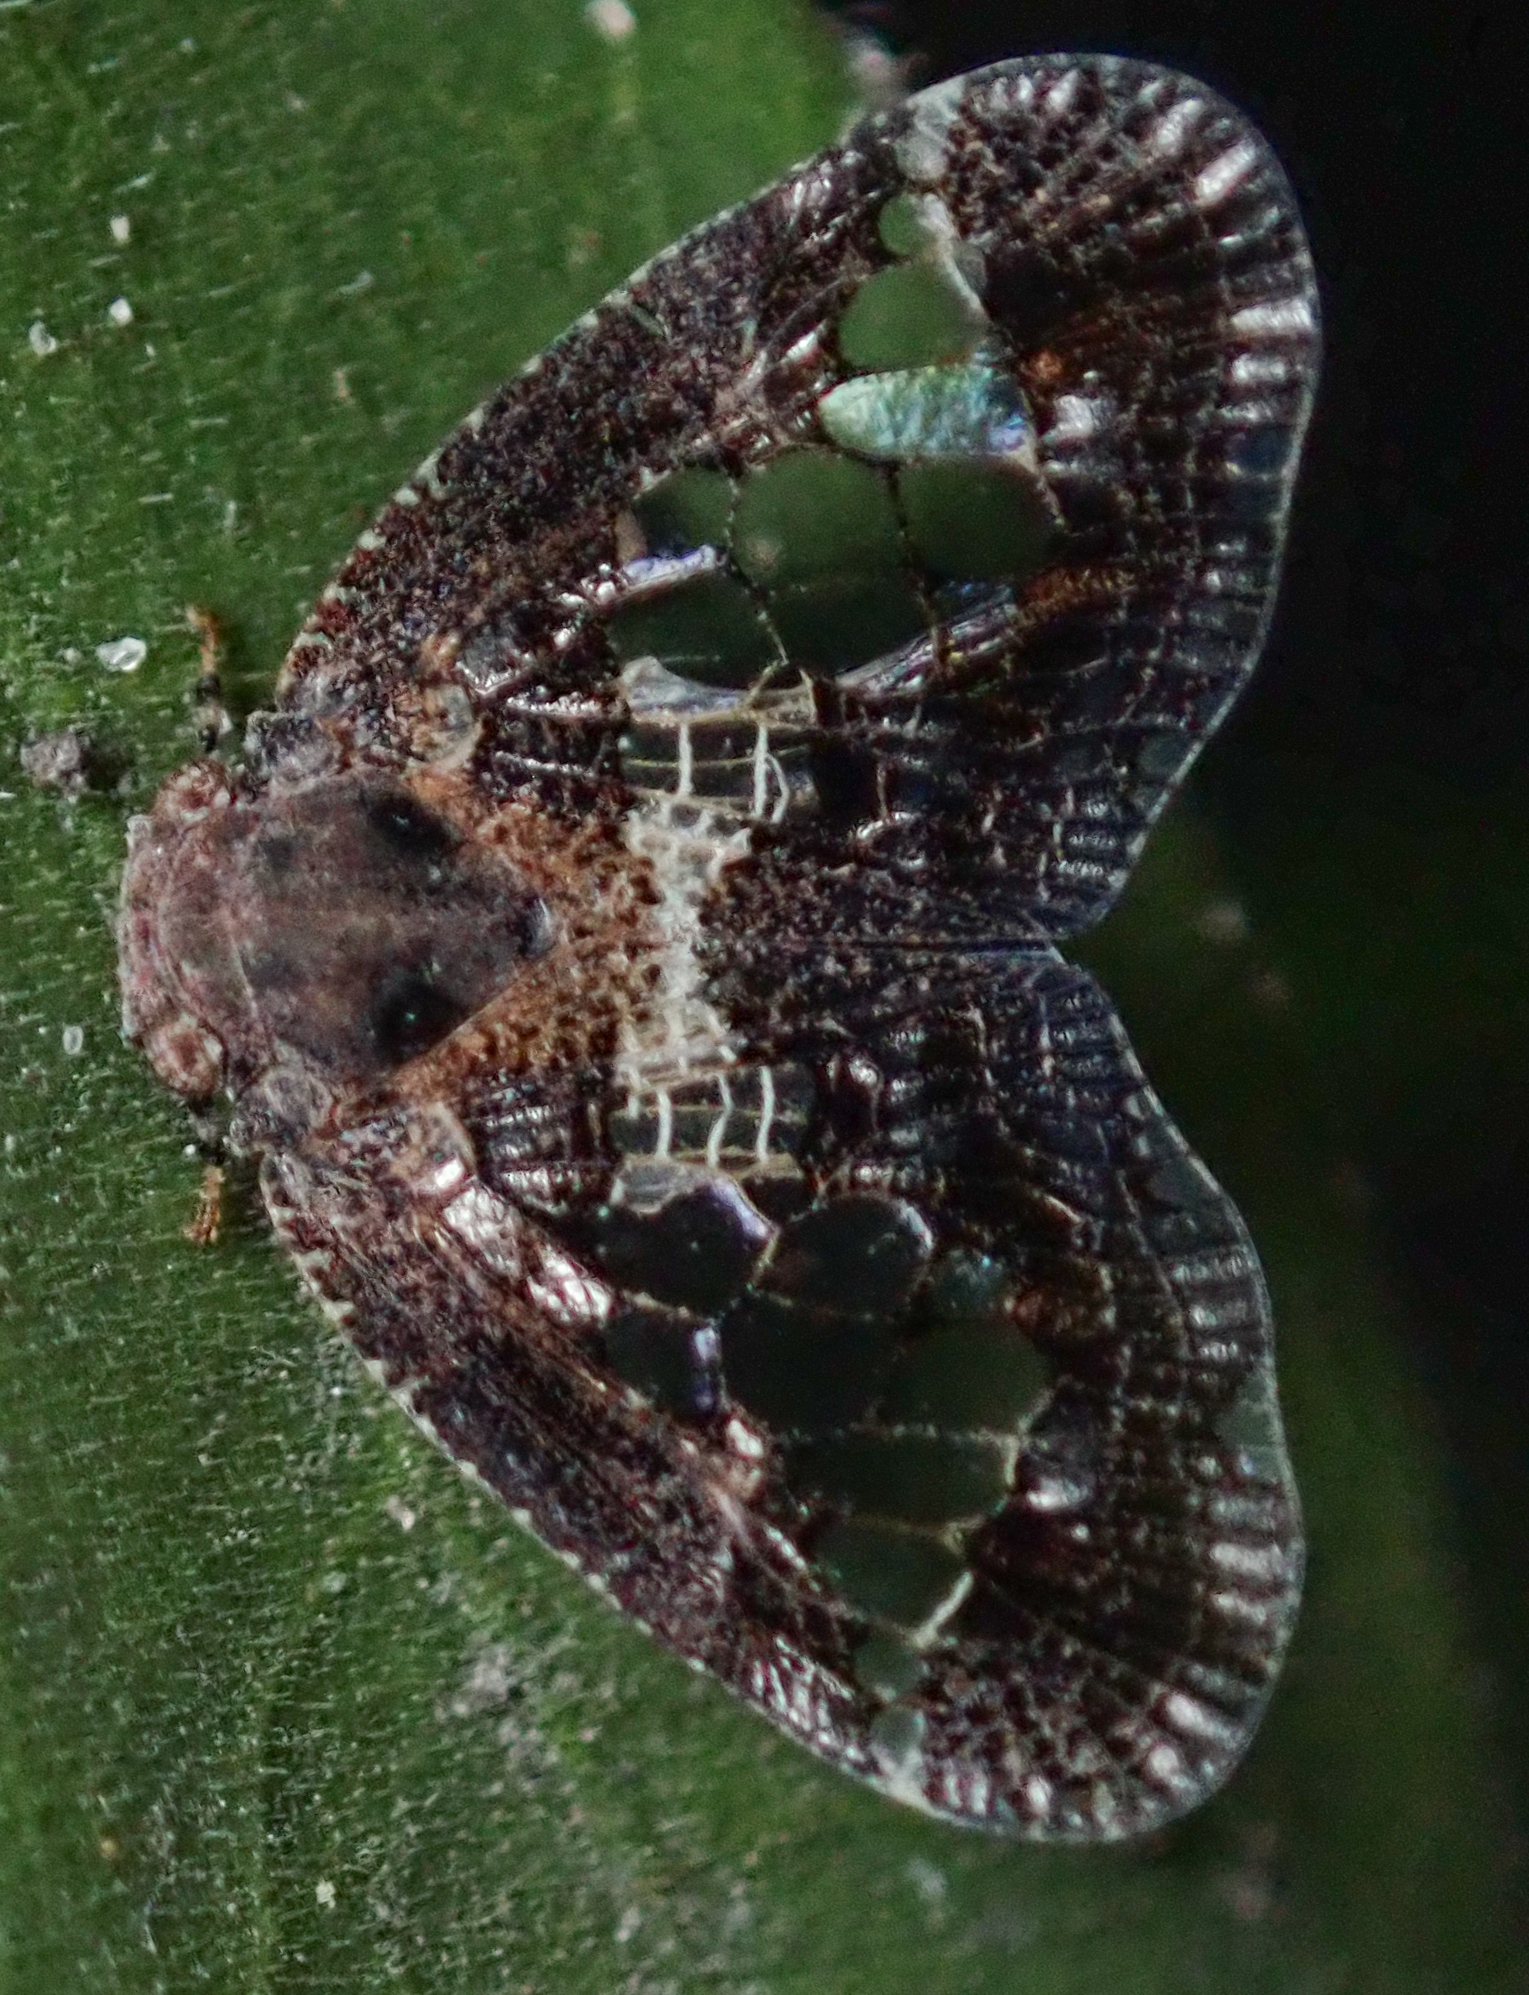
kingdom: Animalia
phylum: Arthropoda
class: Insecta
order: Hemiptera
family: Ricaniidae
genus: Lugardia
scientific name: Lugardia mimica
